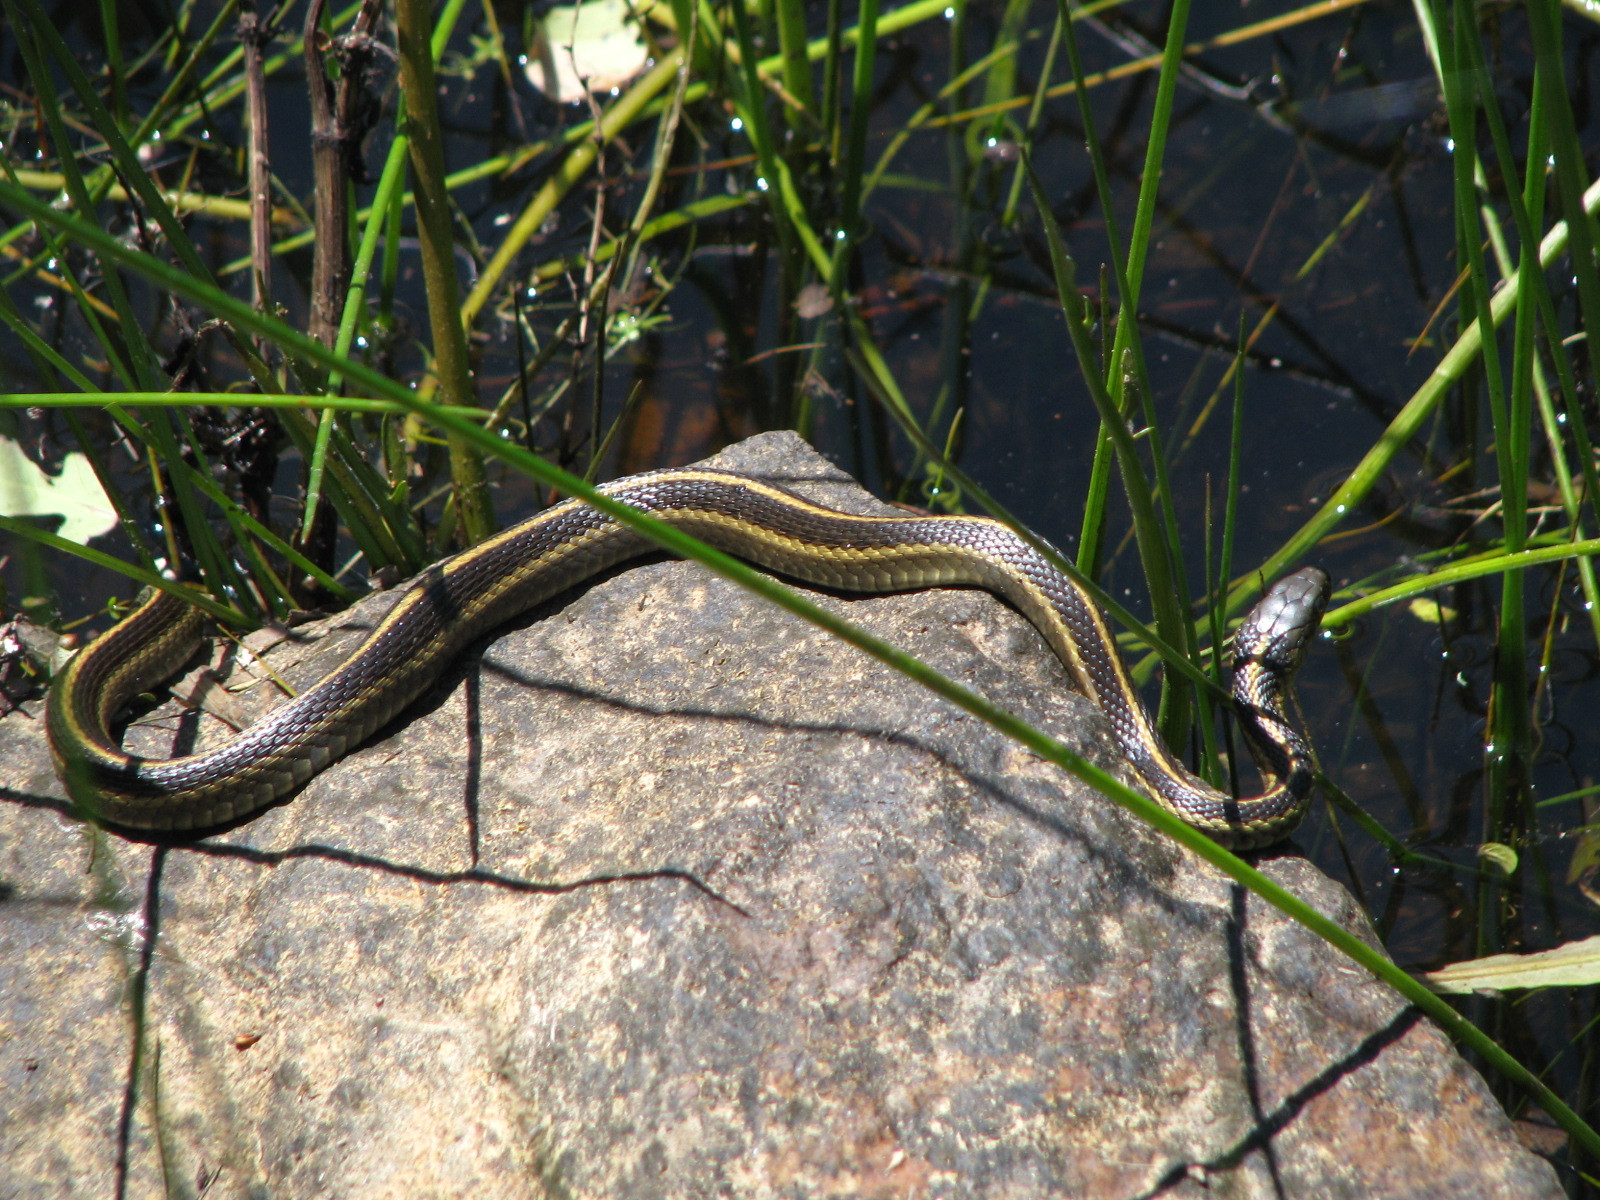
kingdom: Animalia
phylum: Chordata
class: Squamata
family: Colubridae
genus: Thamnophis
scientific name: Thamnophis atratus
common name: Pacific coast aquatic garter snake
